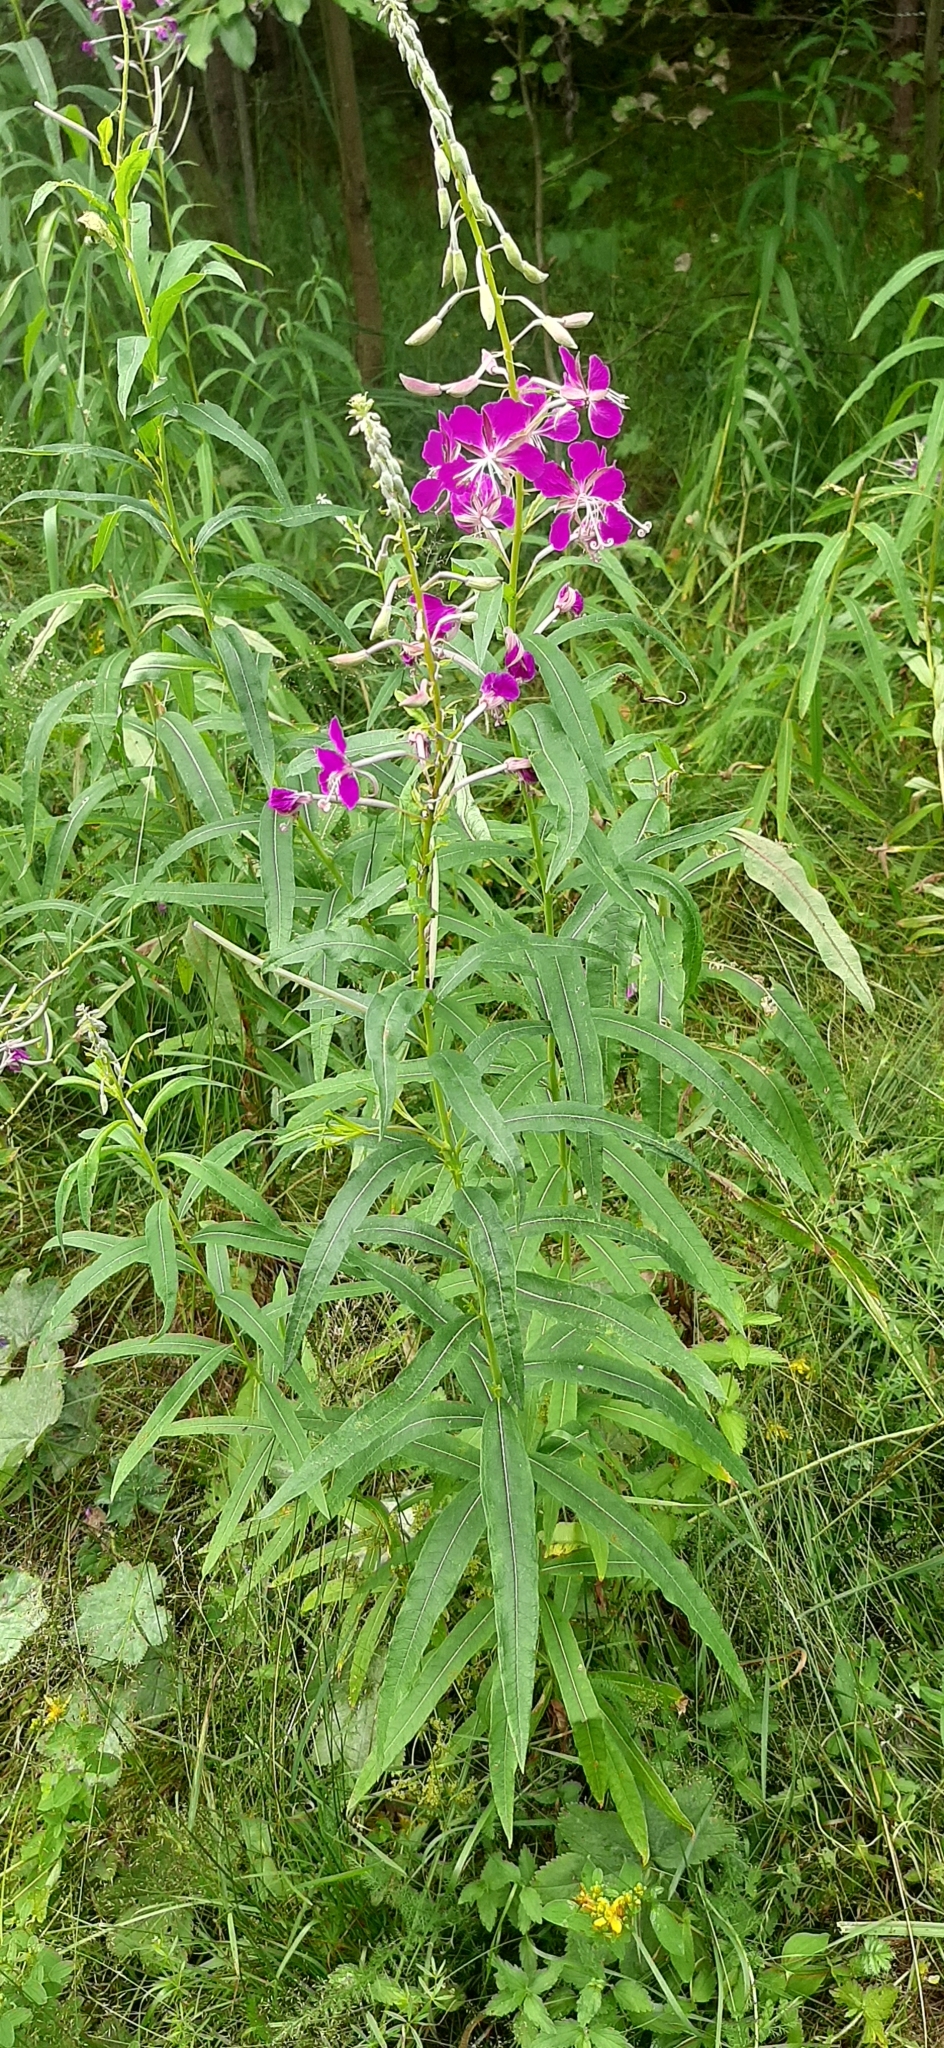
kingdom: Plantae
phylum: Tracheophyta
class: Magnoliopsida
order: Myrtales
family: Onagraceae
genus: Chamaenerion
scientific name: Chamaenerion angustifolium
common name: Fireweed
